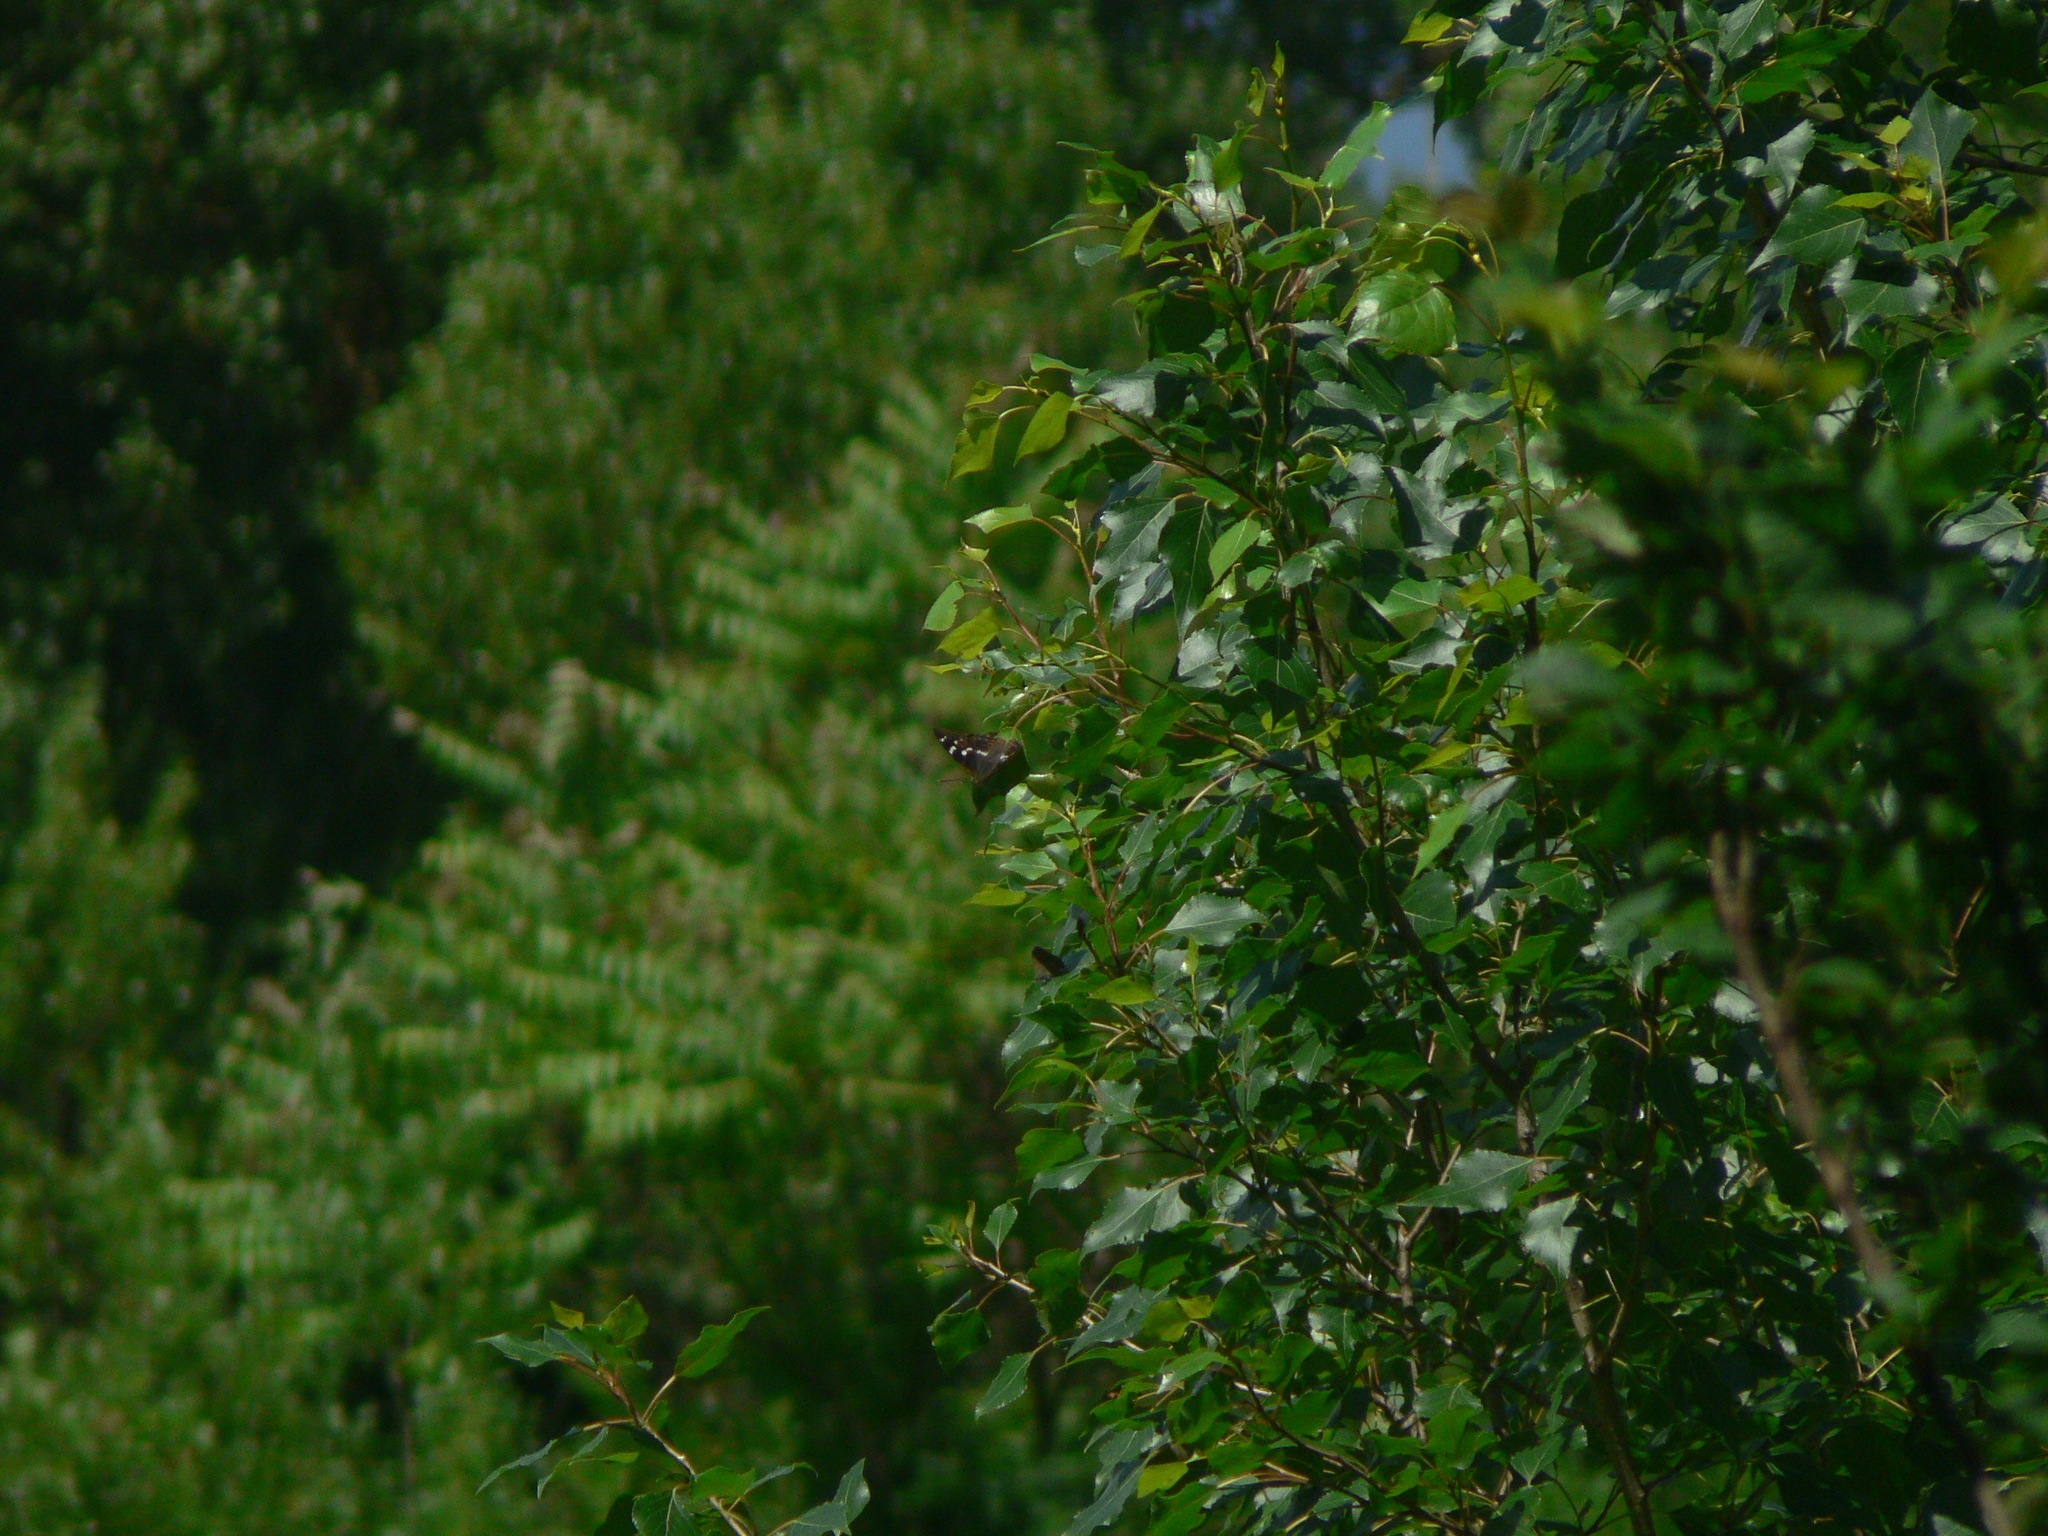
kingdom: Animalia
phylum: Arthropoda
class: Insecta
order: Lepidoptera
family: Nymphalidae
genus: Apatura
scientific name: Apatura ilia
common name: Lesser purple emperor
